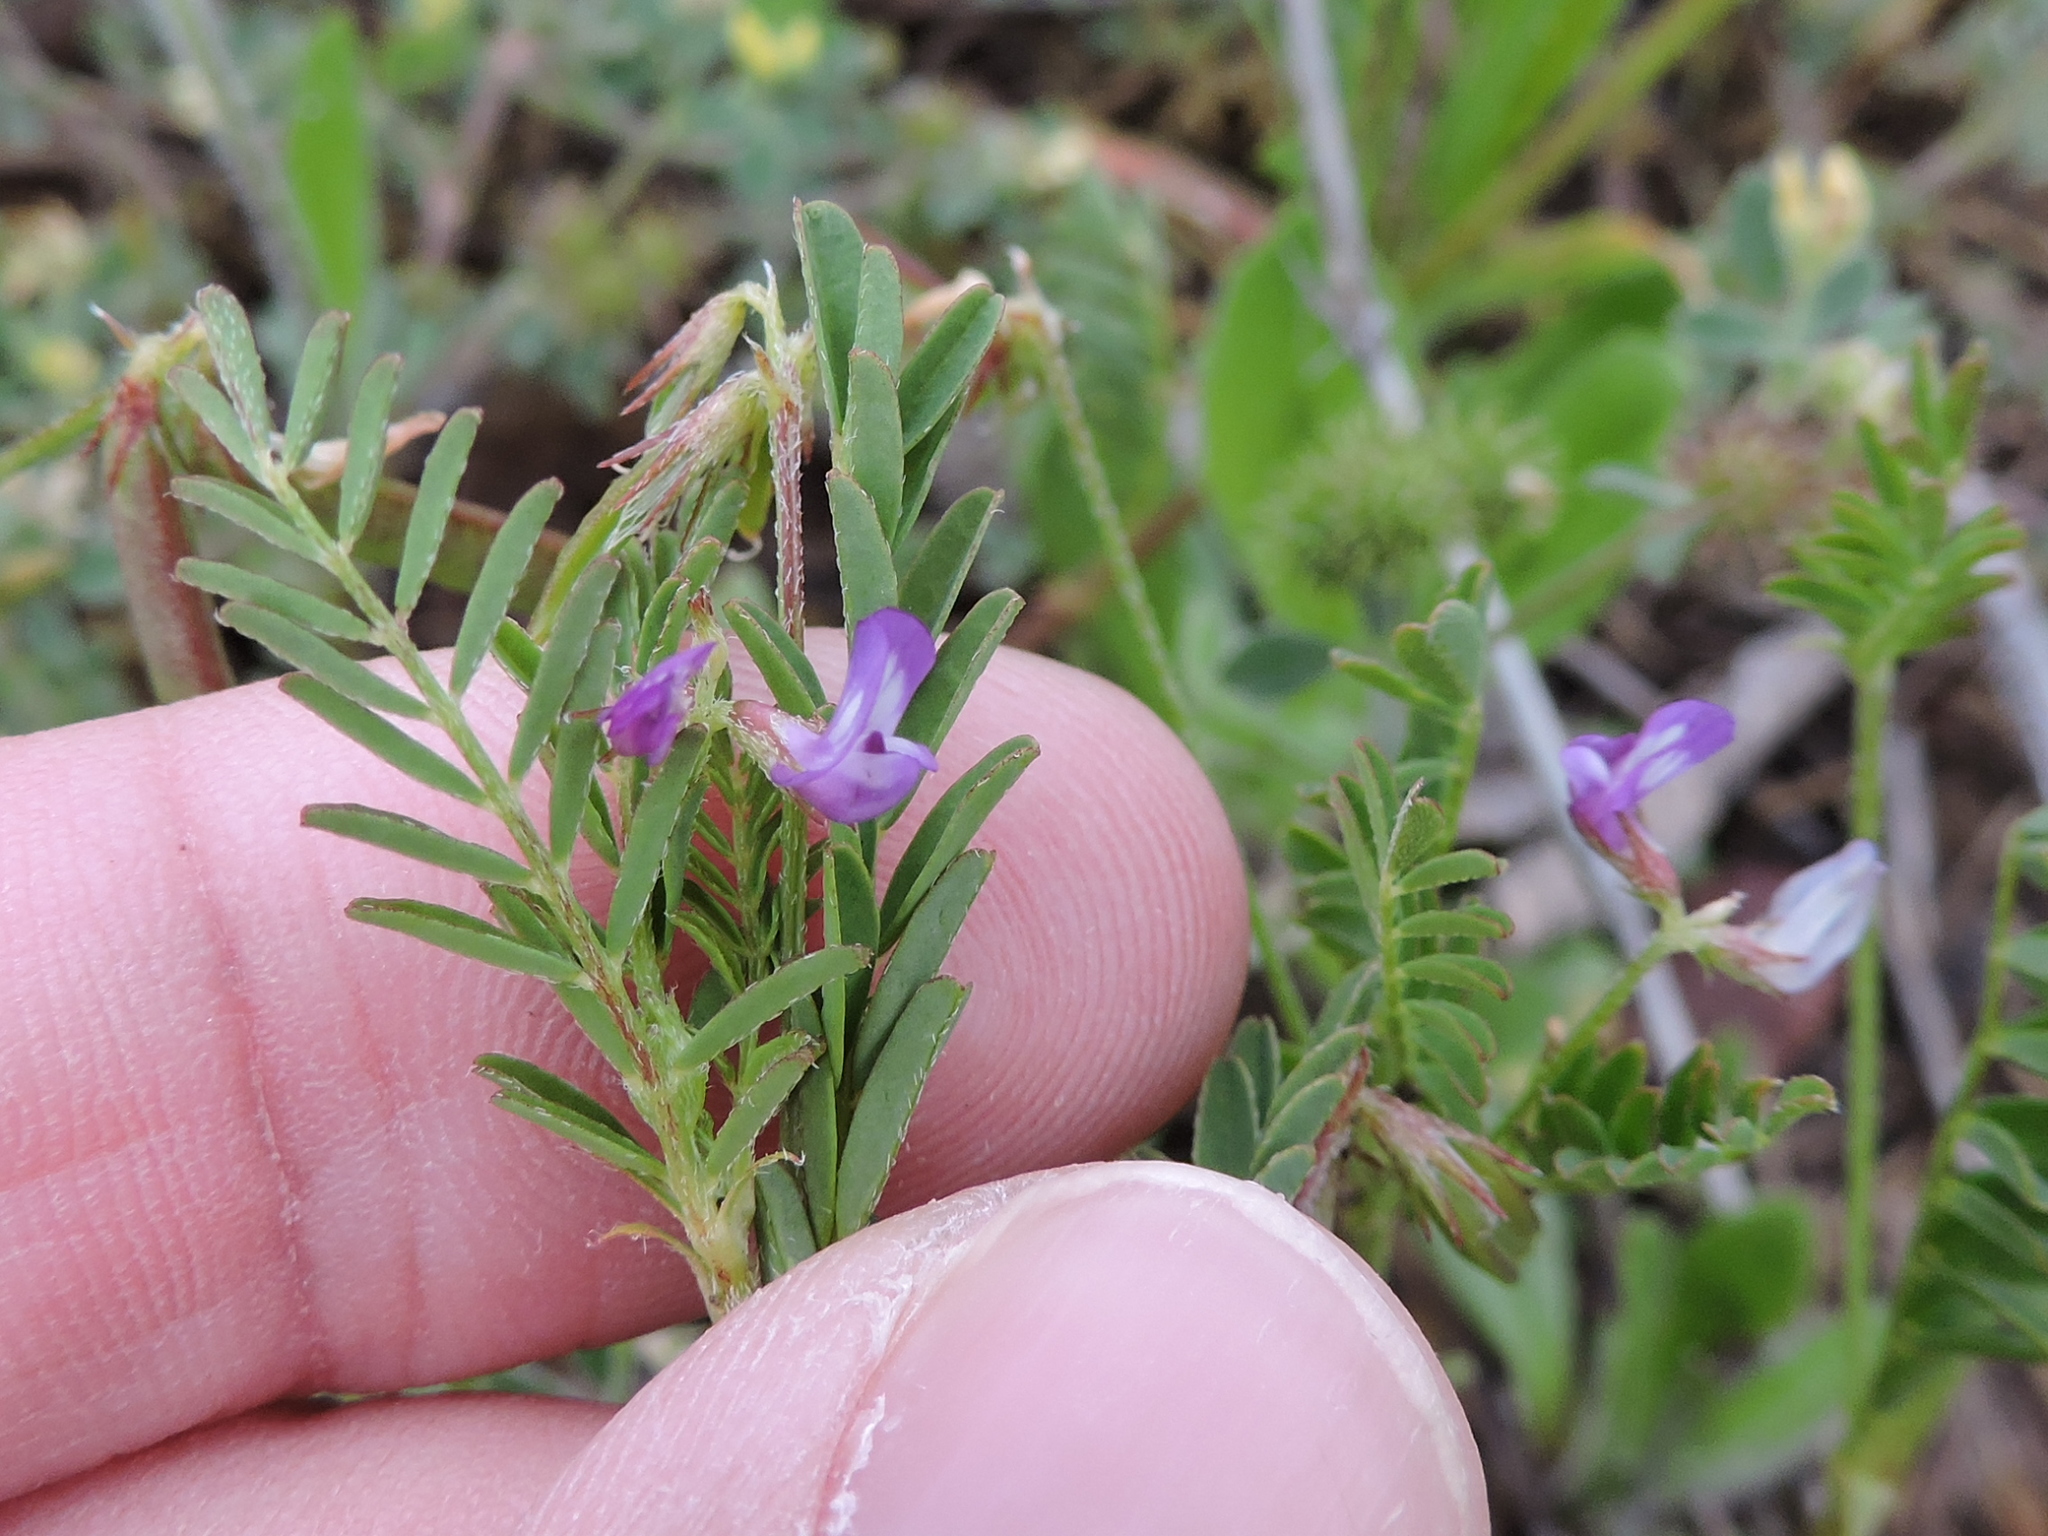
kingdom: Plantae
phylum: Tracheophyta
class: Magnoliopsida
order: Fabales
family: Fabaceae
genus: Astragalus
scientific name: Astragalus leptocarpus
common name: Bodkin milk-vetch
